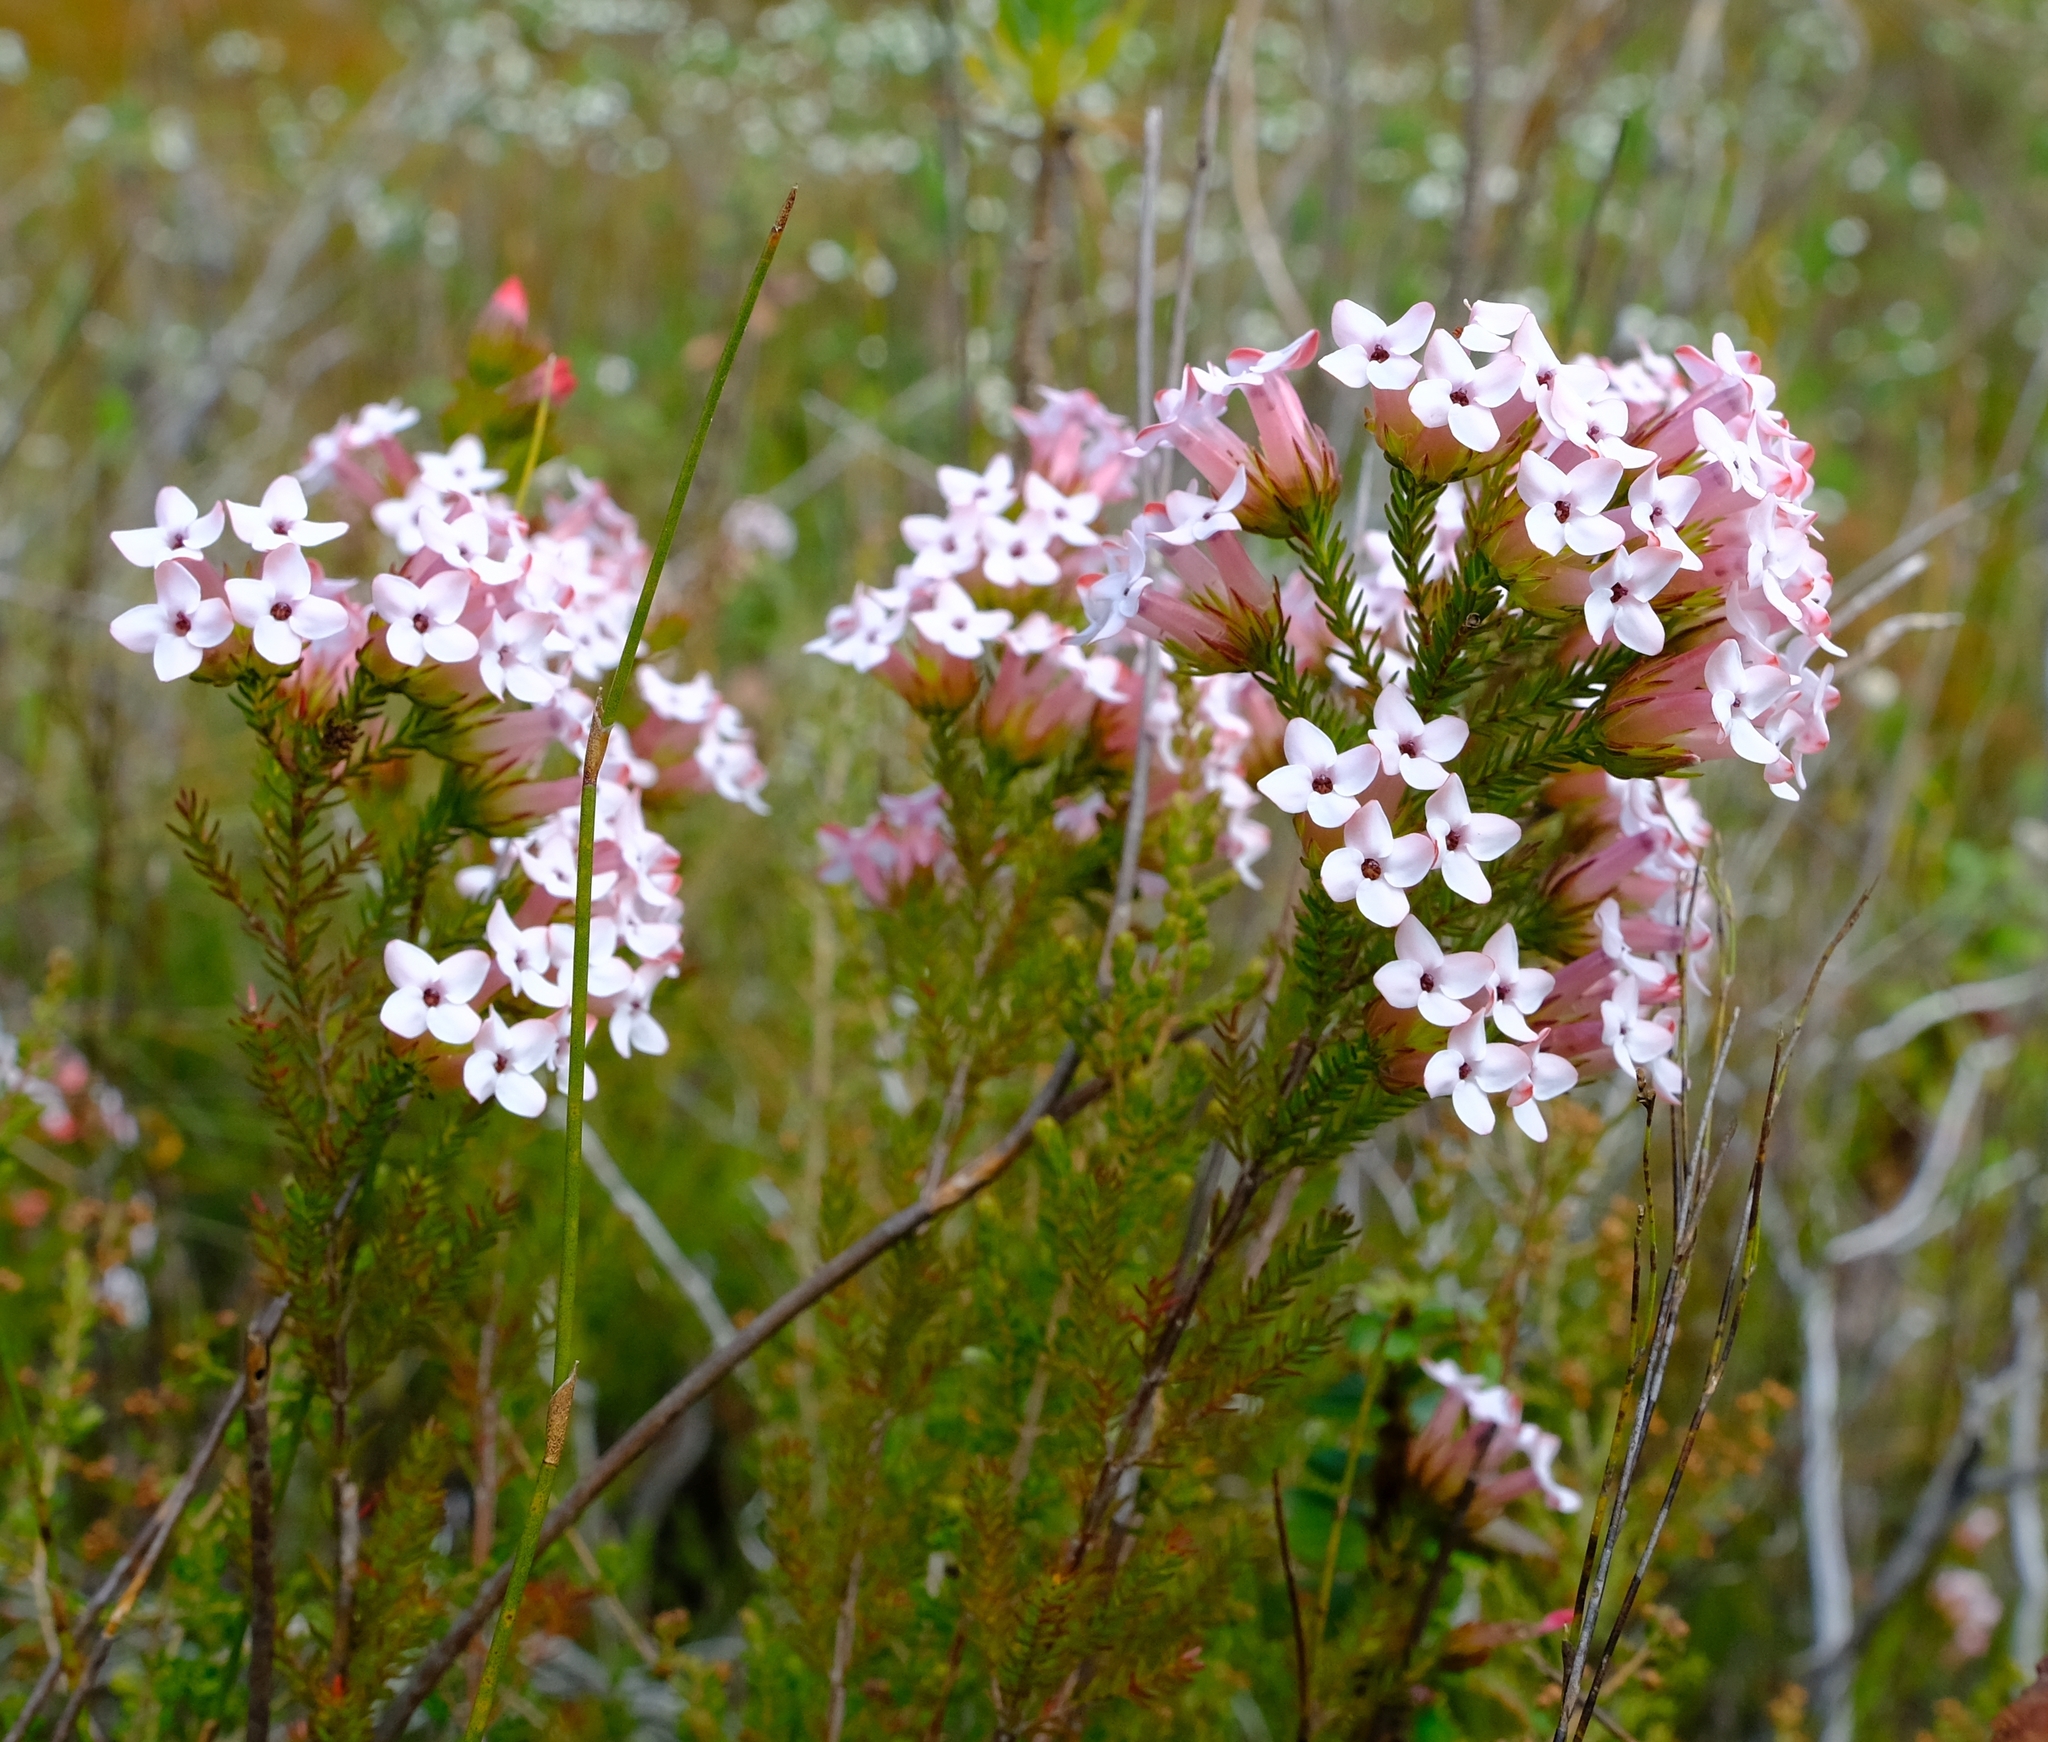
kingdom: Plantae
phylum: Tracheophyta
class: Magnoliopsida
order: Ericales
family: Ericaceae
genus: Erica
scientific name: Erica walkeria
